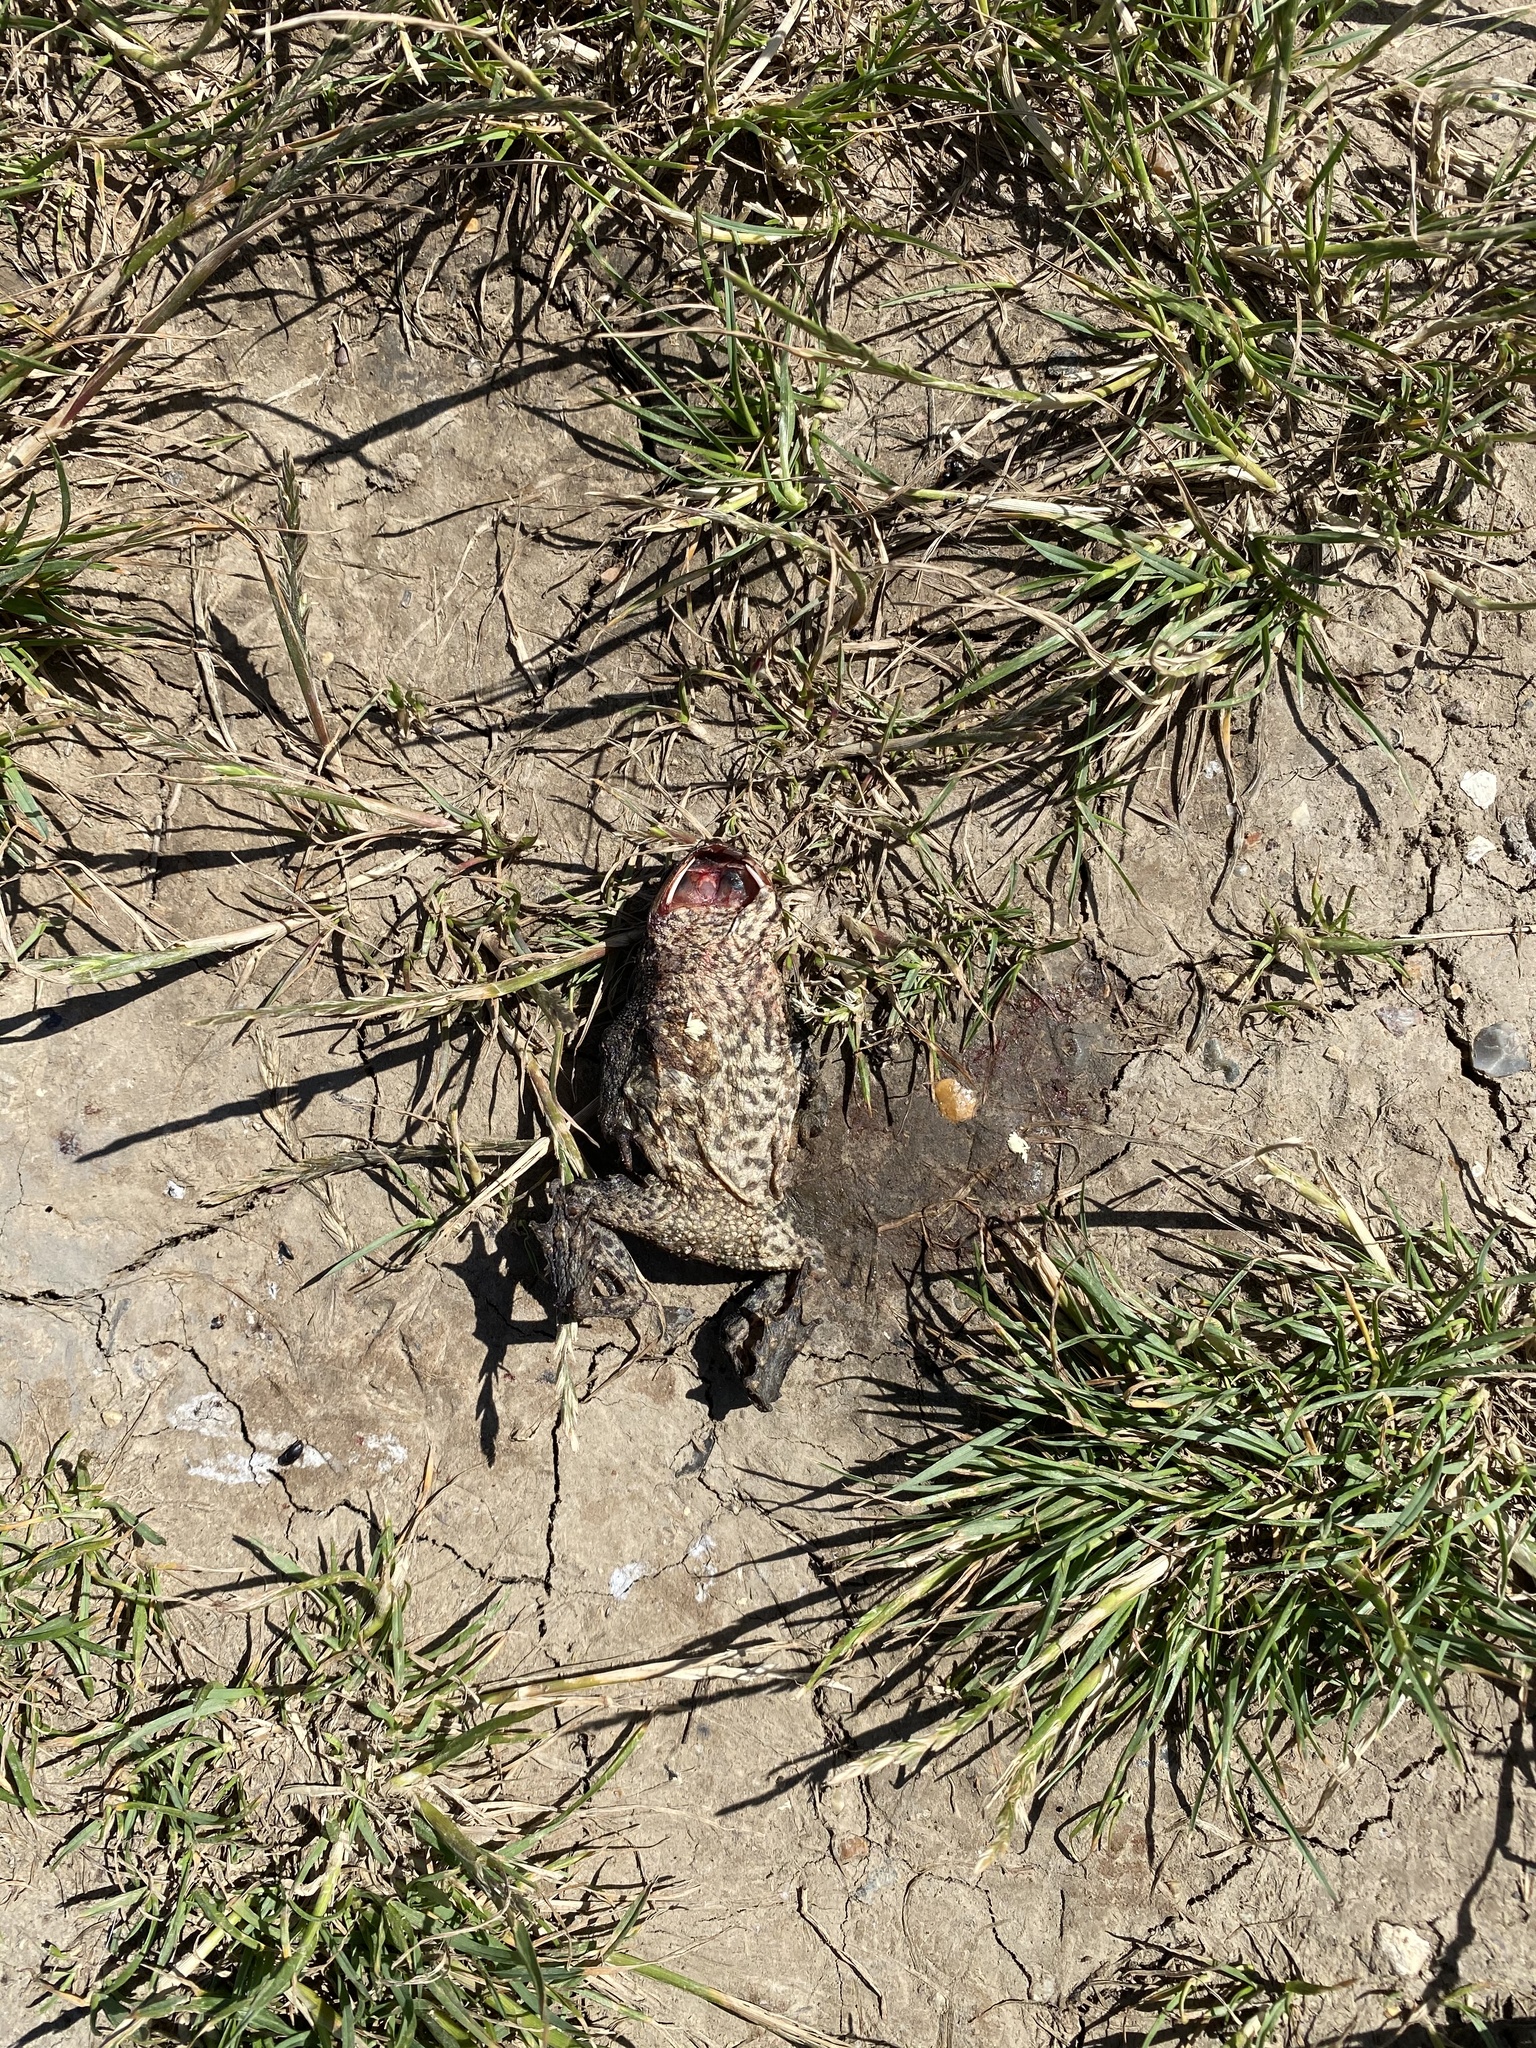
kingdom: Animalia
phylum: Chordata
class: Amphibia
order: Anura
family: Bufonidae
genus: Bufo
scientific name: Bufo bufo
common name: Common toad
